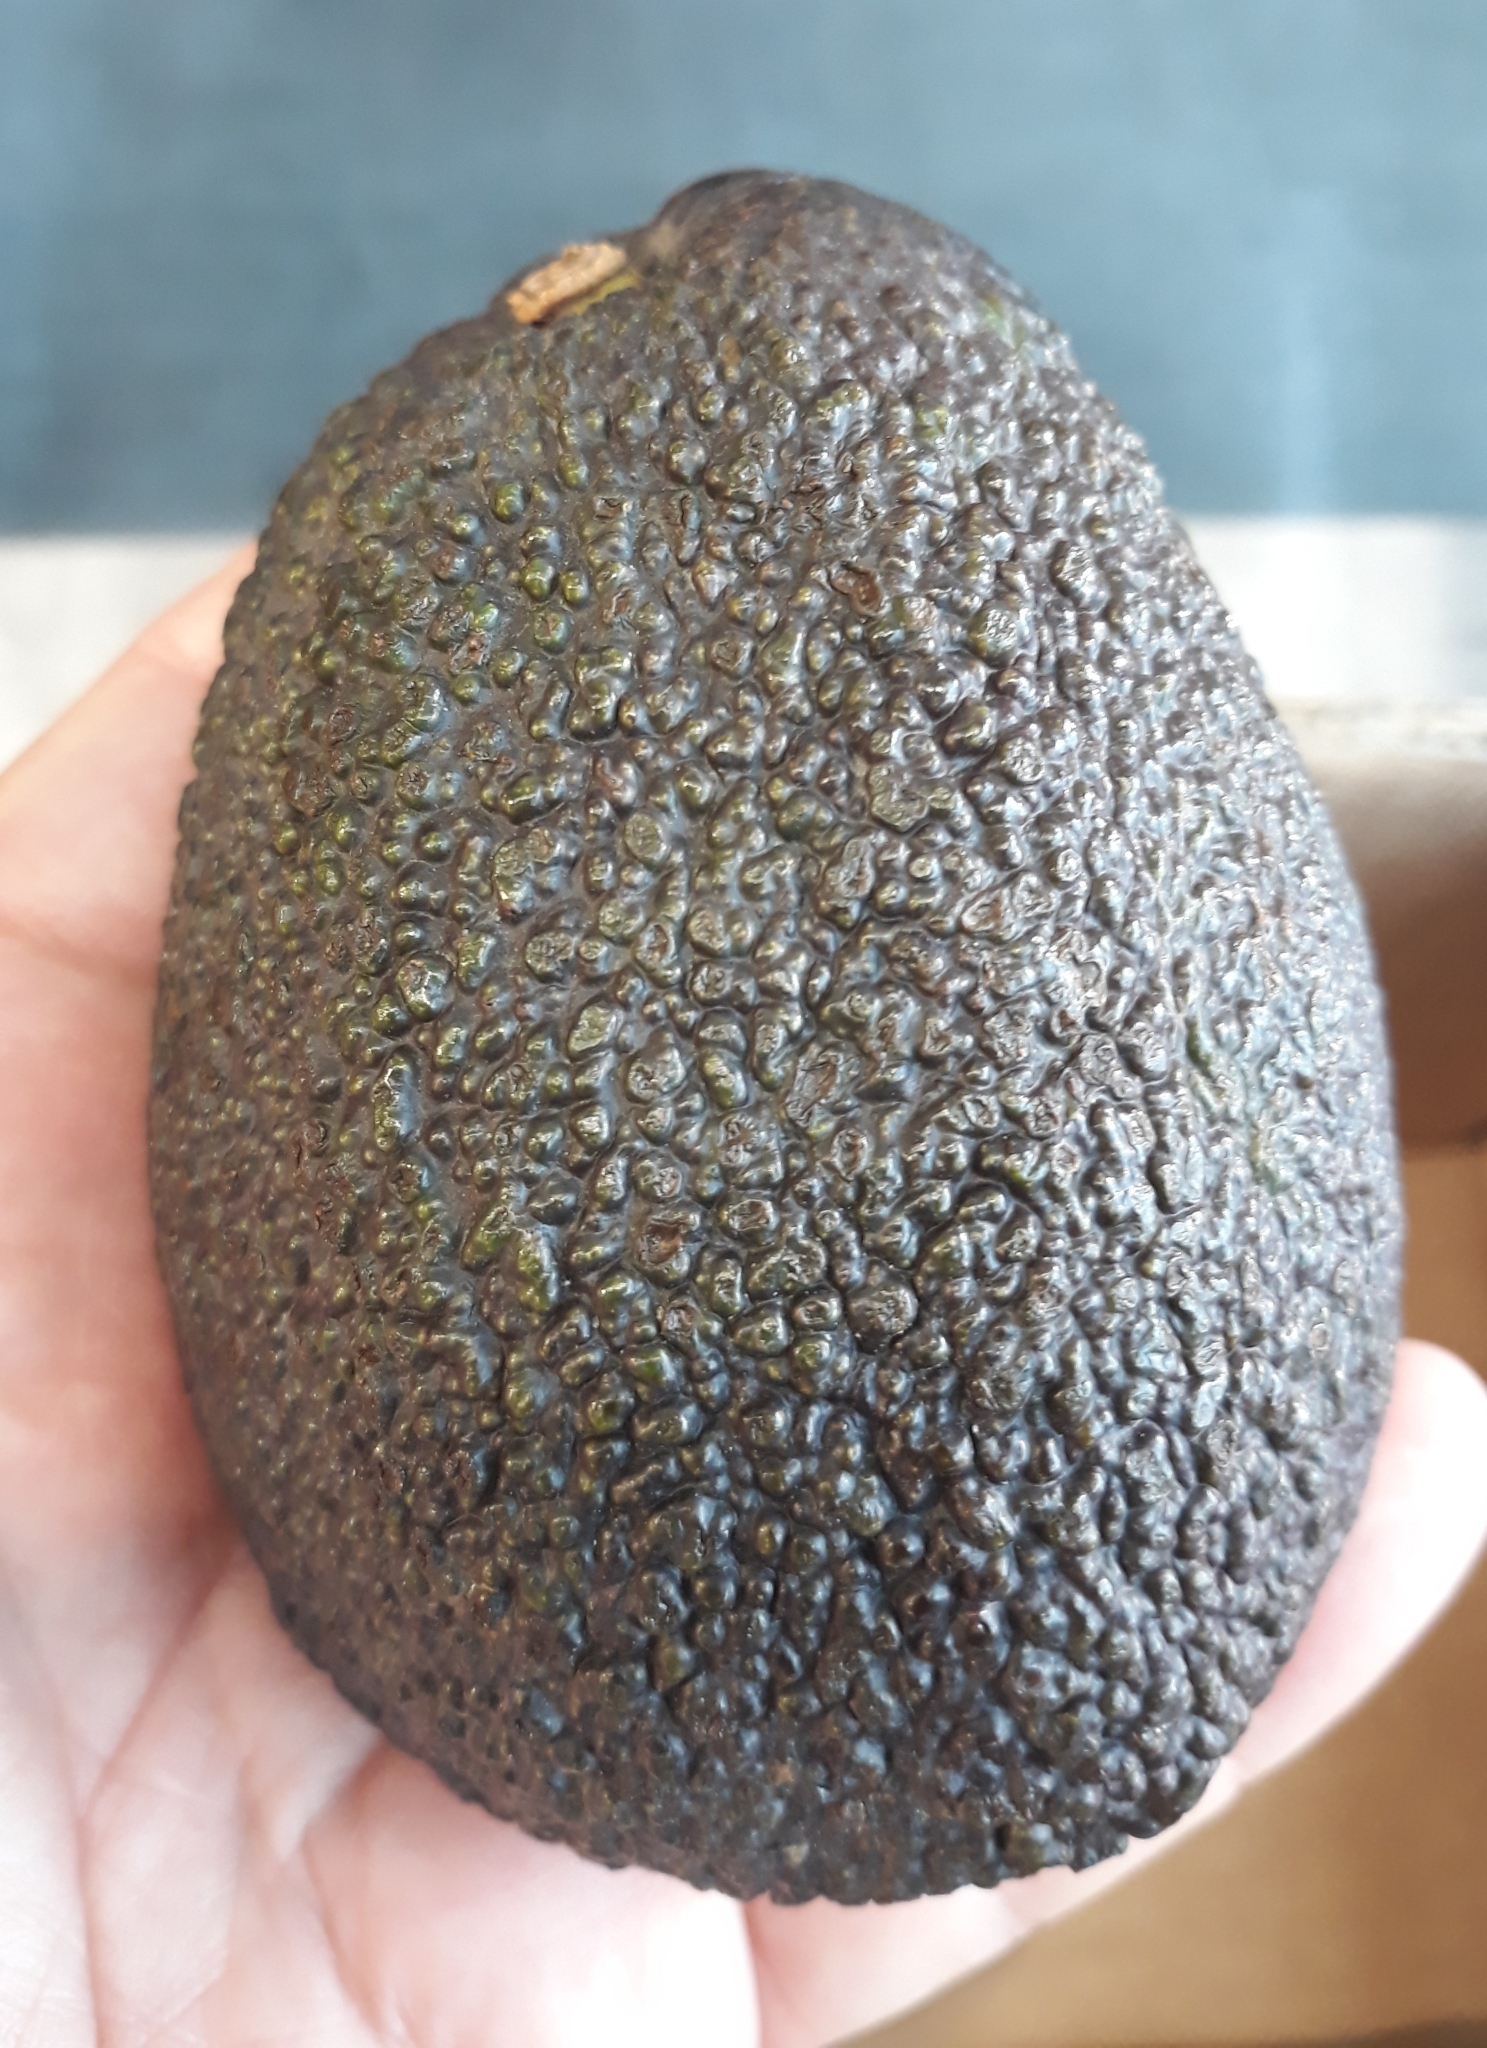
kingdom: Plantae
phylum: Tracheophyta
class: Magnoliopsida
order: Laurales
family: Lauraceae
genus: Persea
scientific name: Persea americana
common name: Avocado
